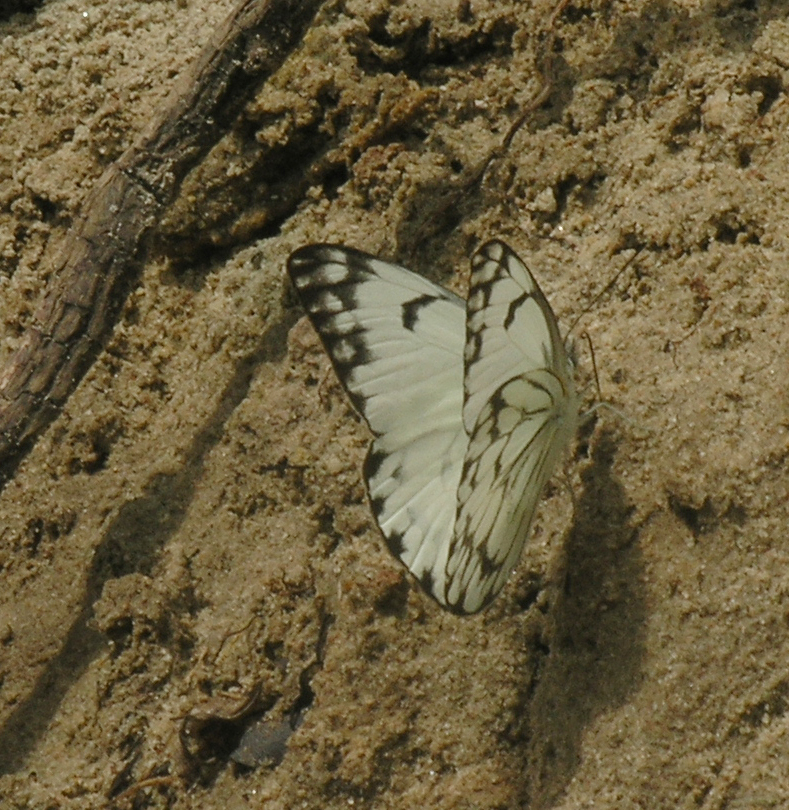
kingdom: Animalia
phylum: Arthropoda
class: Insecta
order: Lepidoptera
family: Pieridae
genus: Belenois
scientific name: Belenois gidica
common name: Pointed caper white
